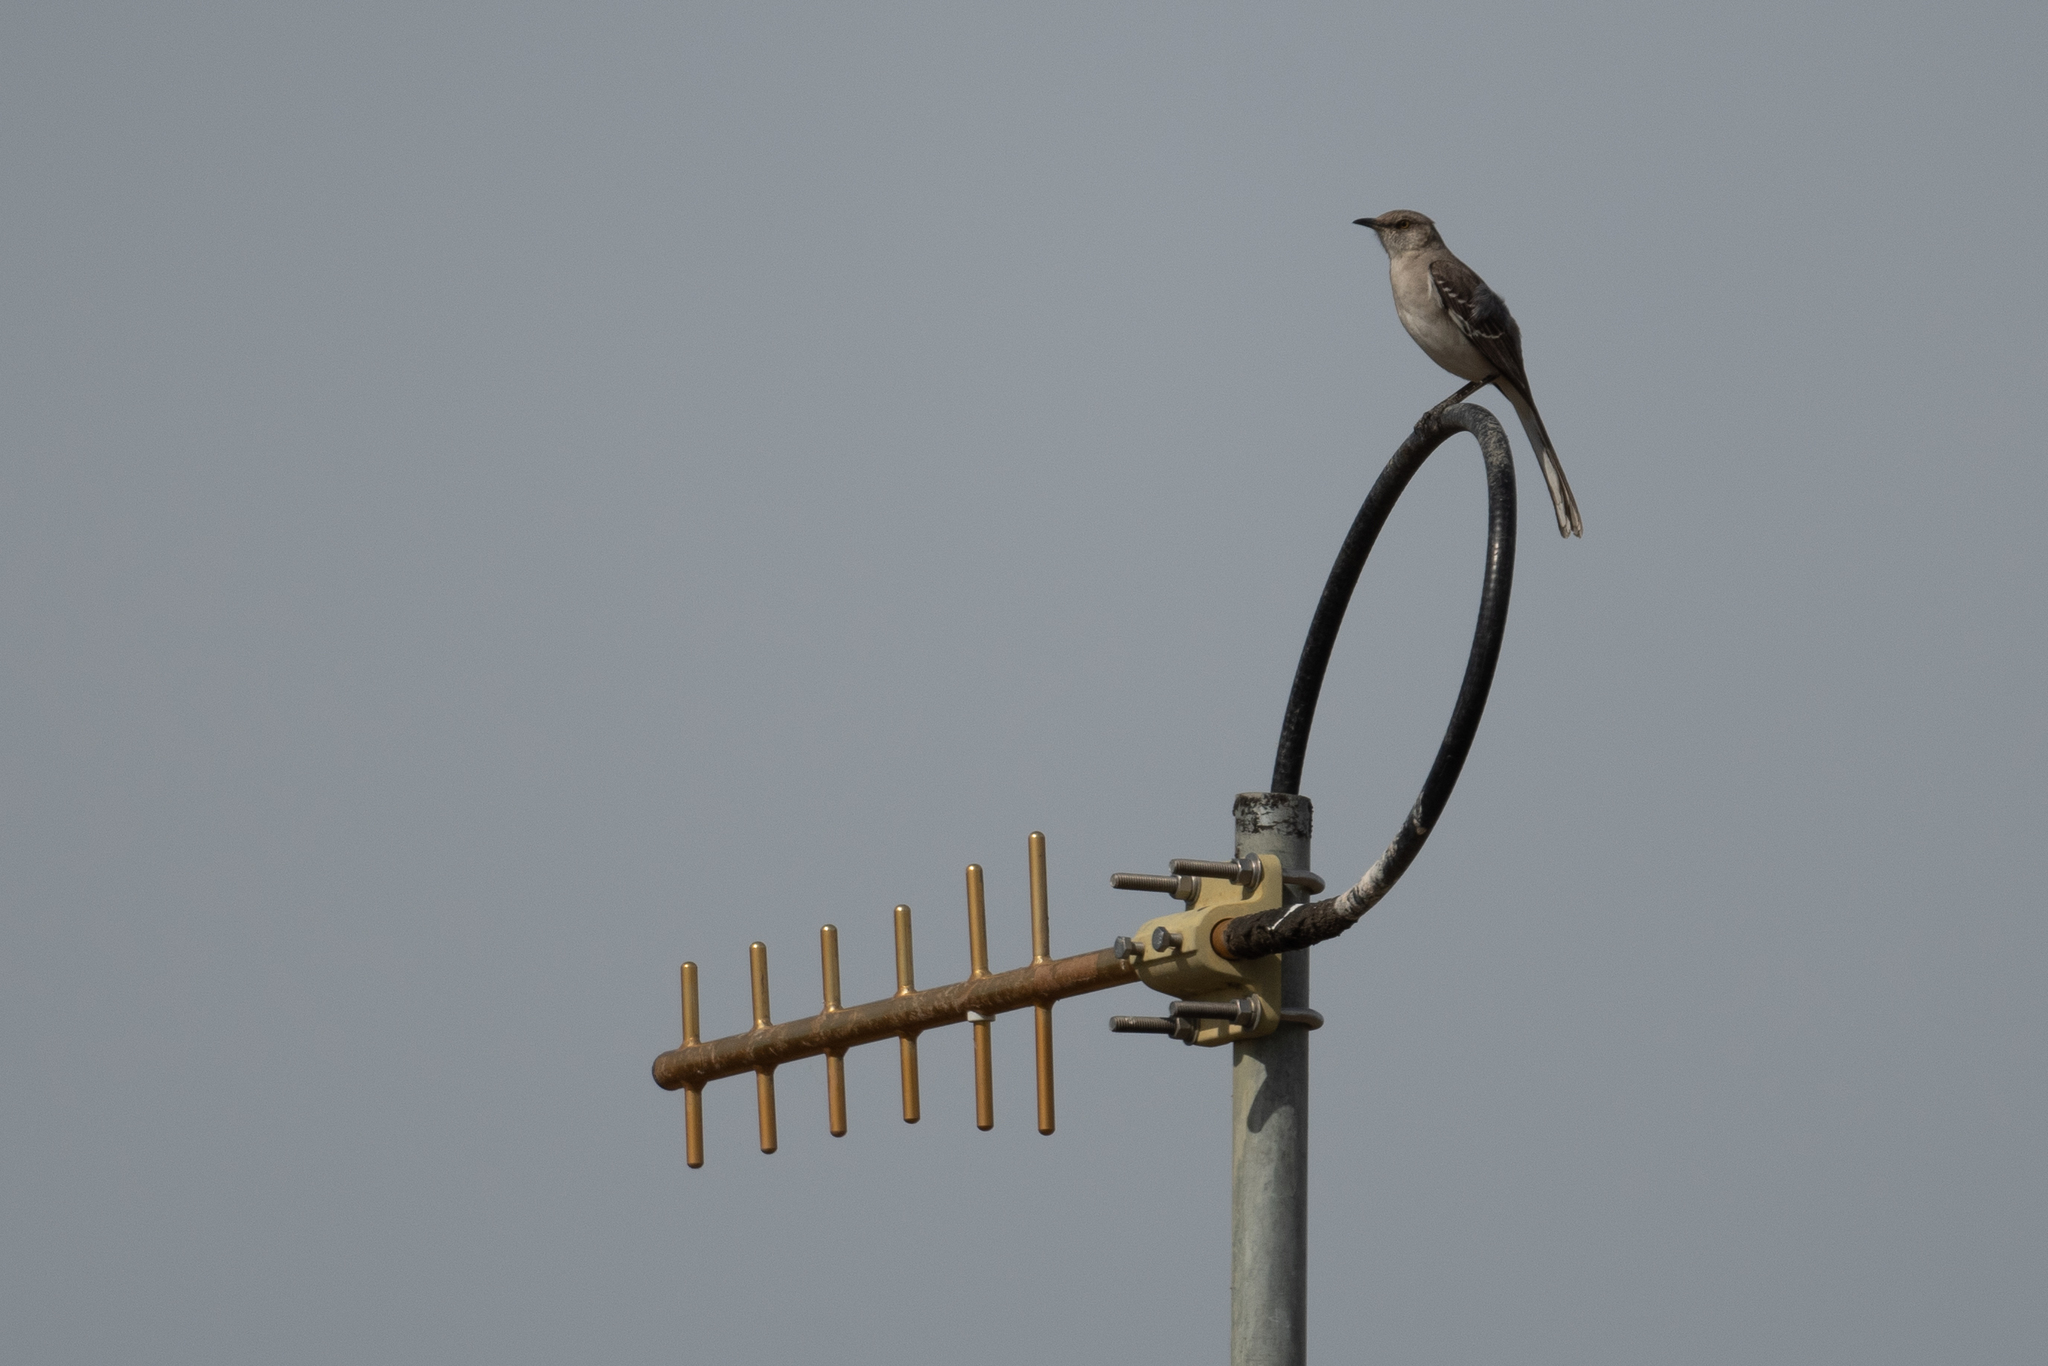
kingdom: Animalia
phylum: Chordata
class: Aves
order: Passeriformes
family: Mimidae
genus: Mimus
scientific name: Mimus polyglottos
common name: Northern mockingbird
